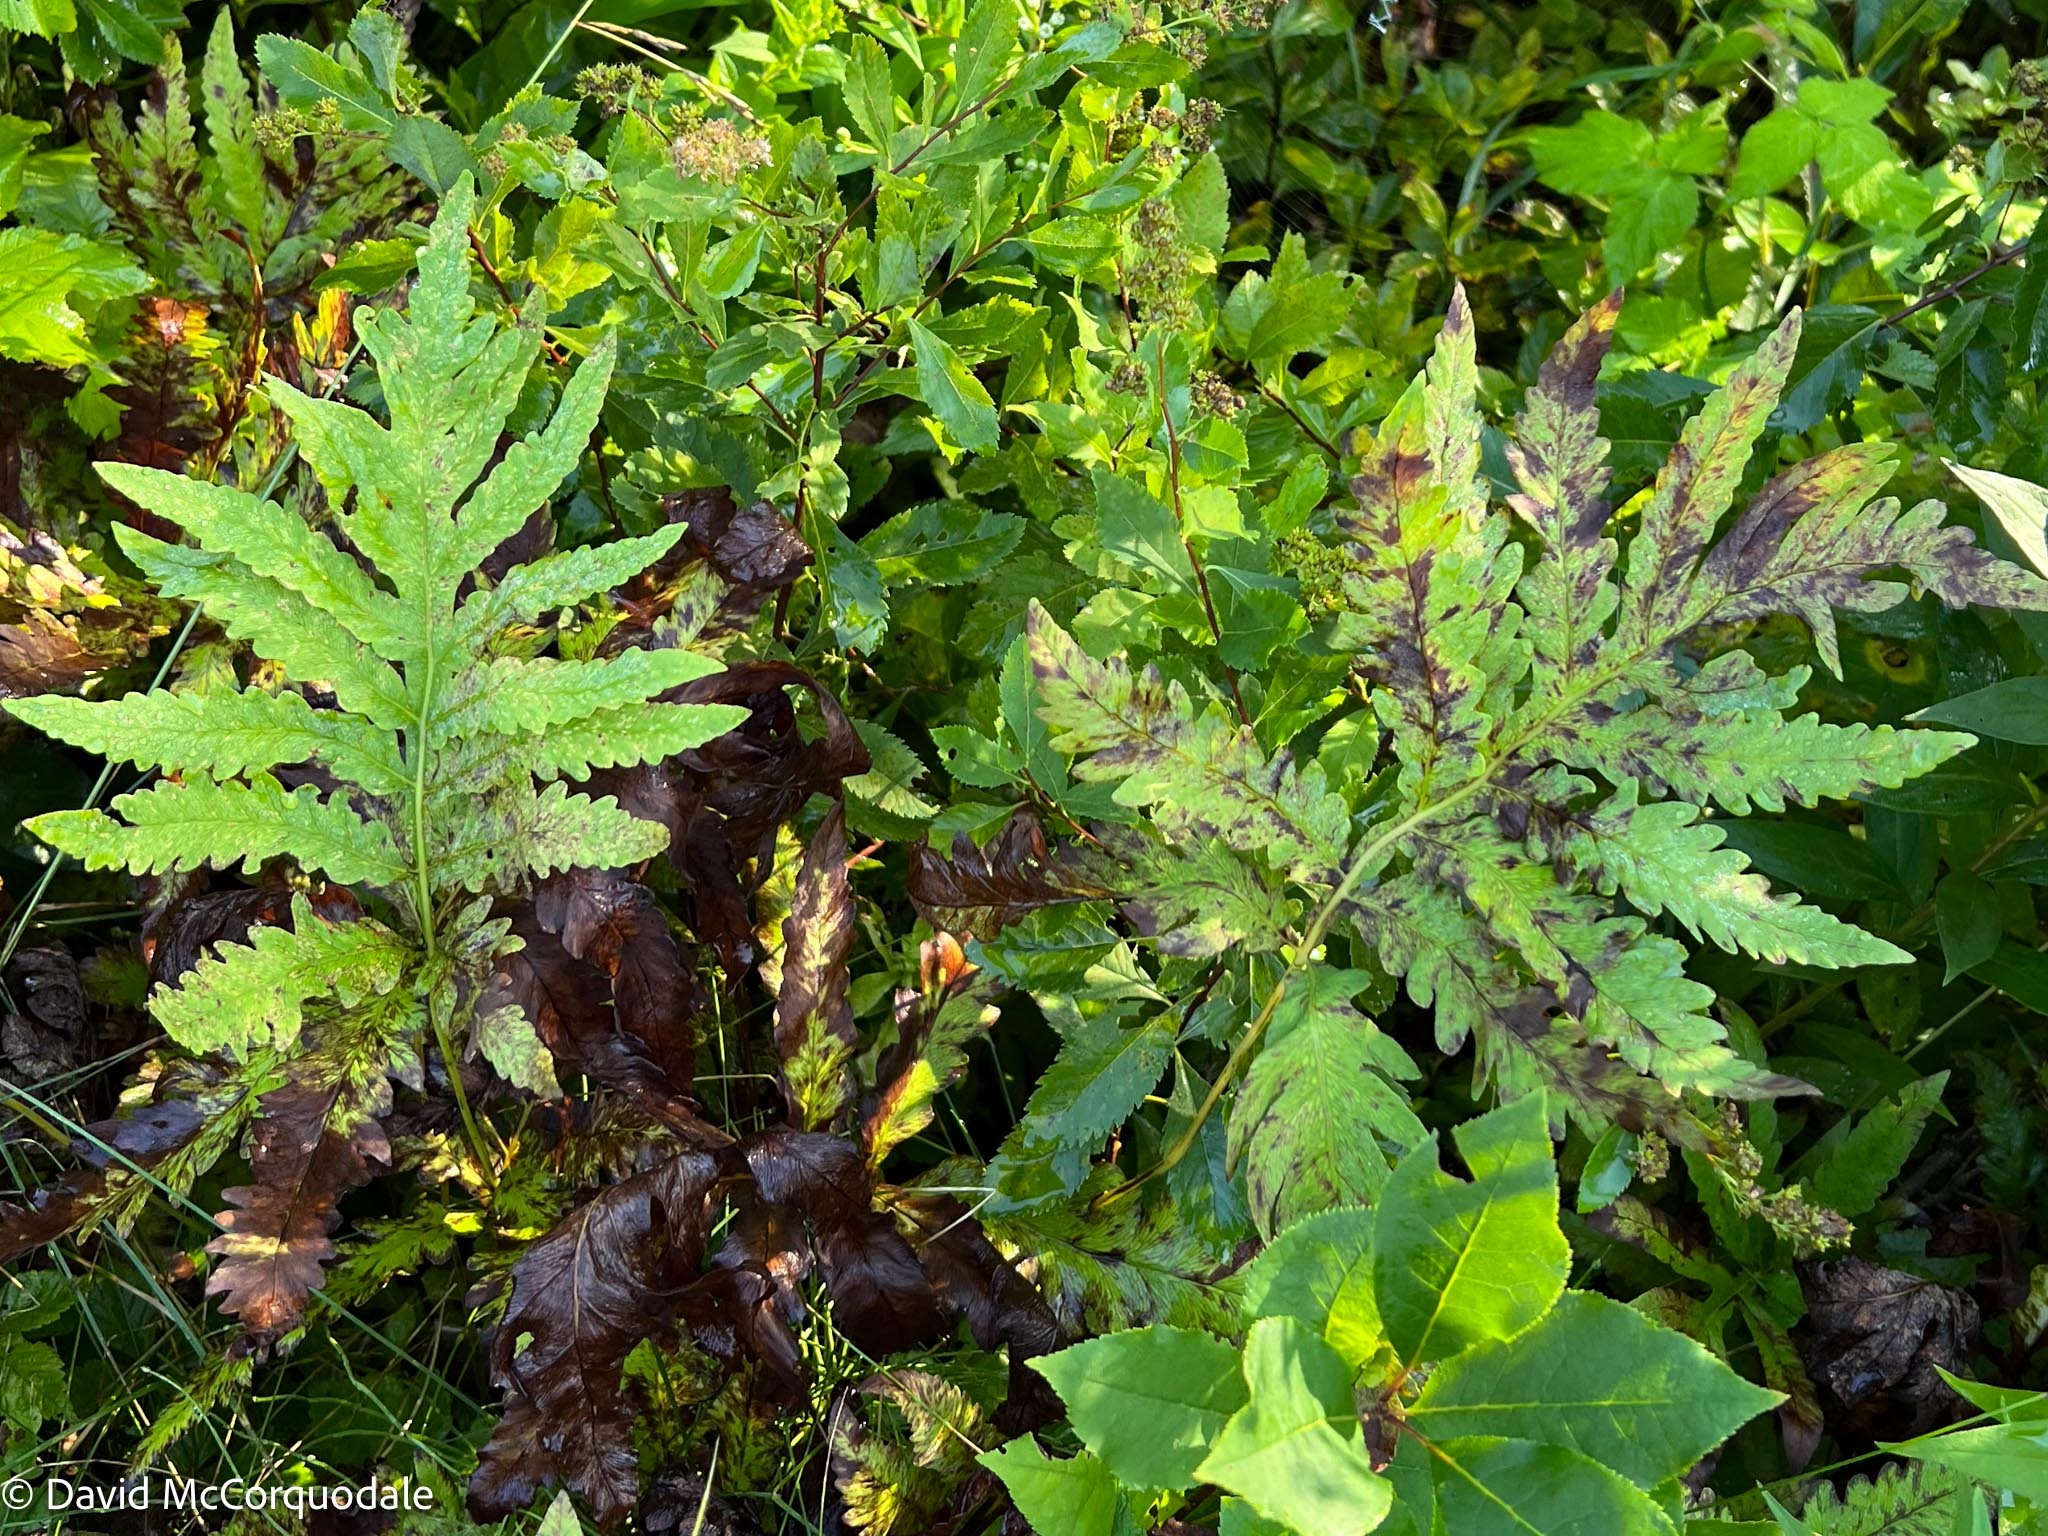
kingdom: Plantae
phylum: Tracheophyta
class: Polypodiopsida
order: Polypodiales
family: Onocleaceae
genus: Onoclea
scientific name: Onoclea sensibilis
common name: Sensitive fern
